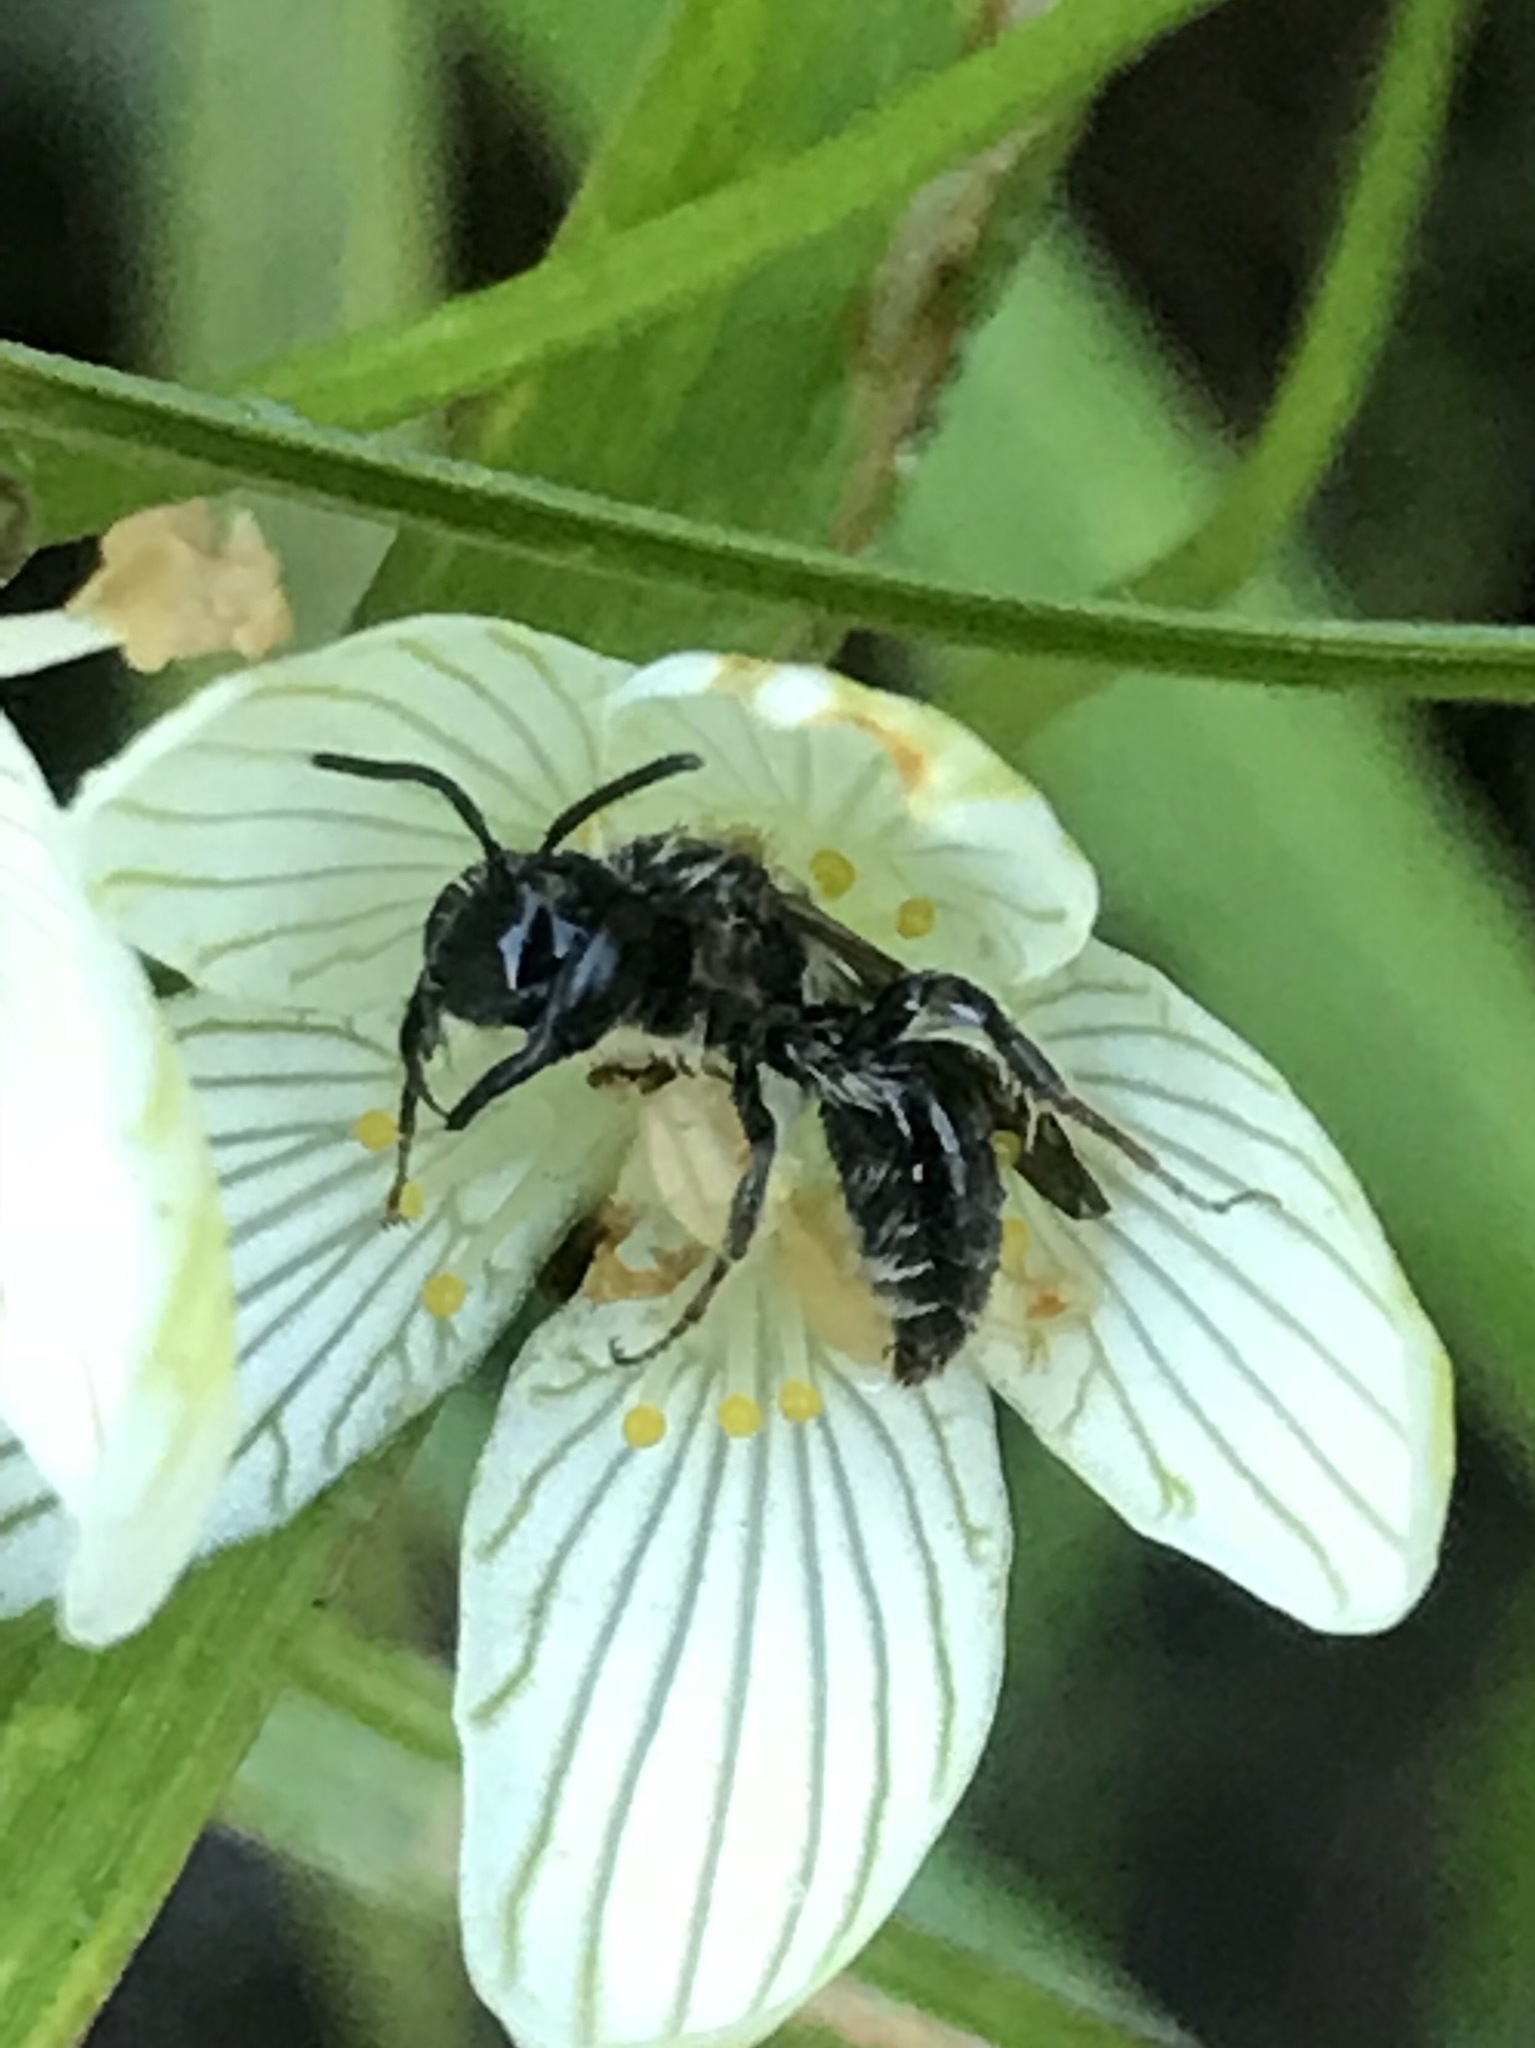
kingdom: Animalia
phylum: Arthropoda
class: Insecta
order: Hymenoptera
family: Andrenidae
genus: Andrena
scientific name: Andrena parnassiae
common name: Parnassia miner
